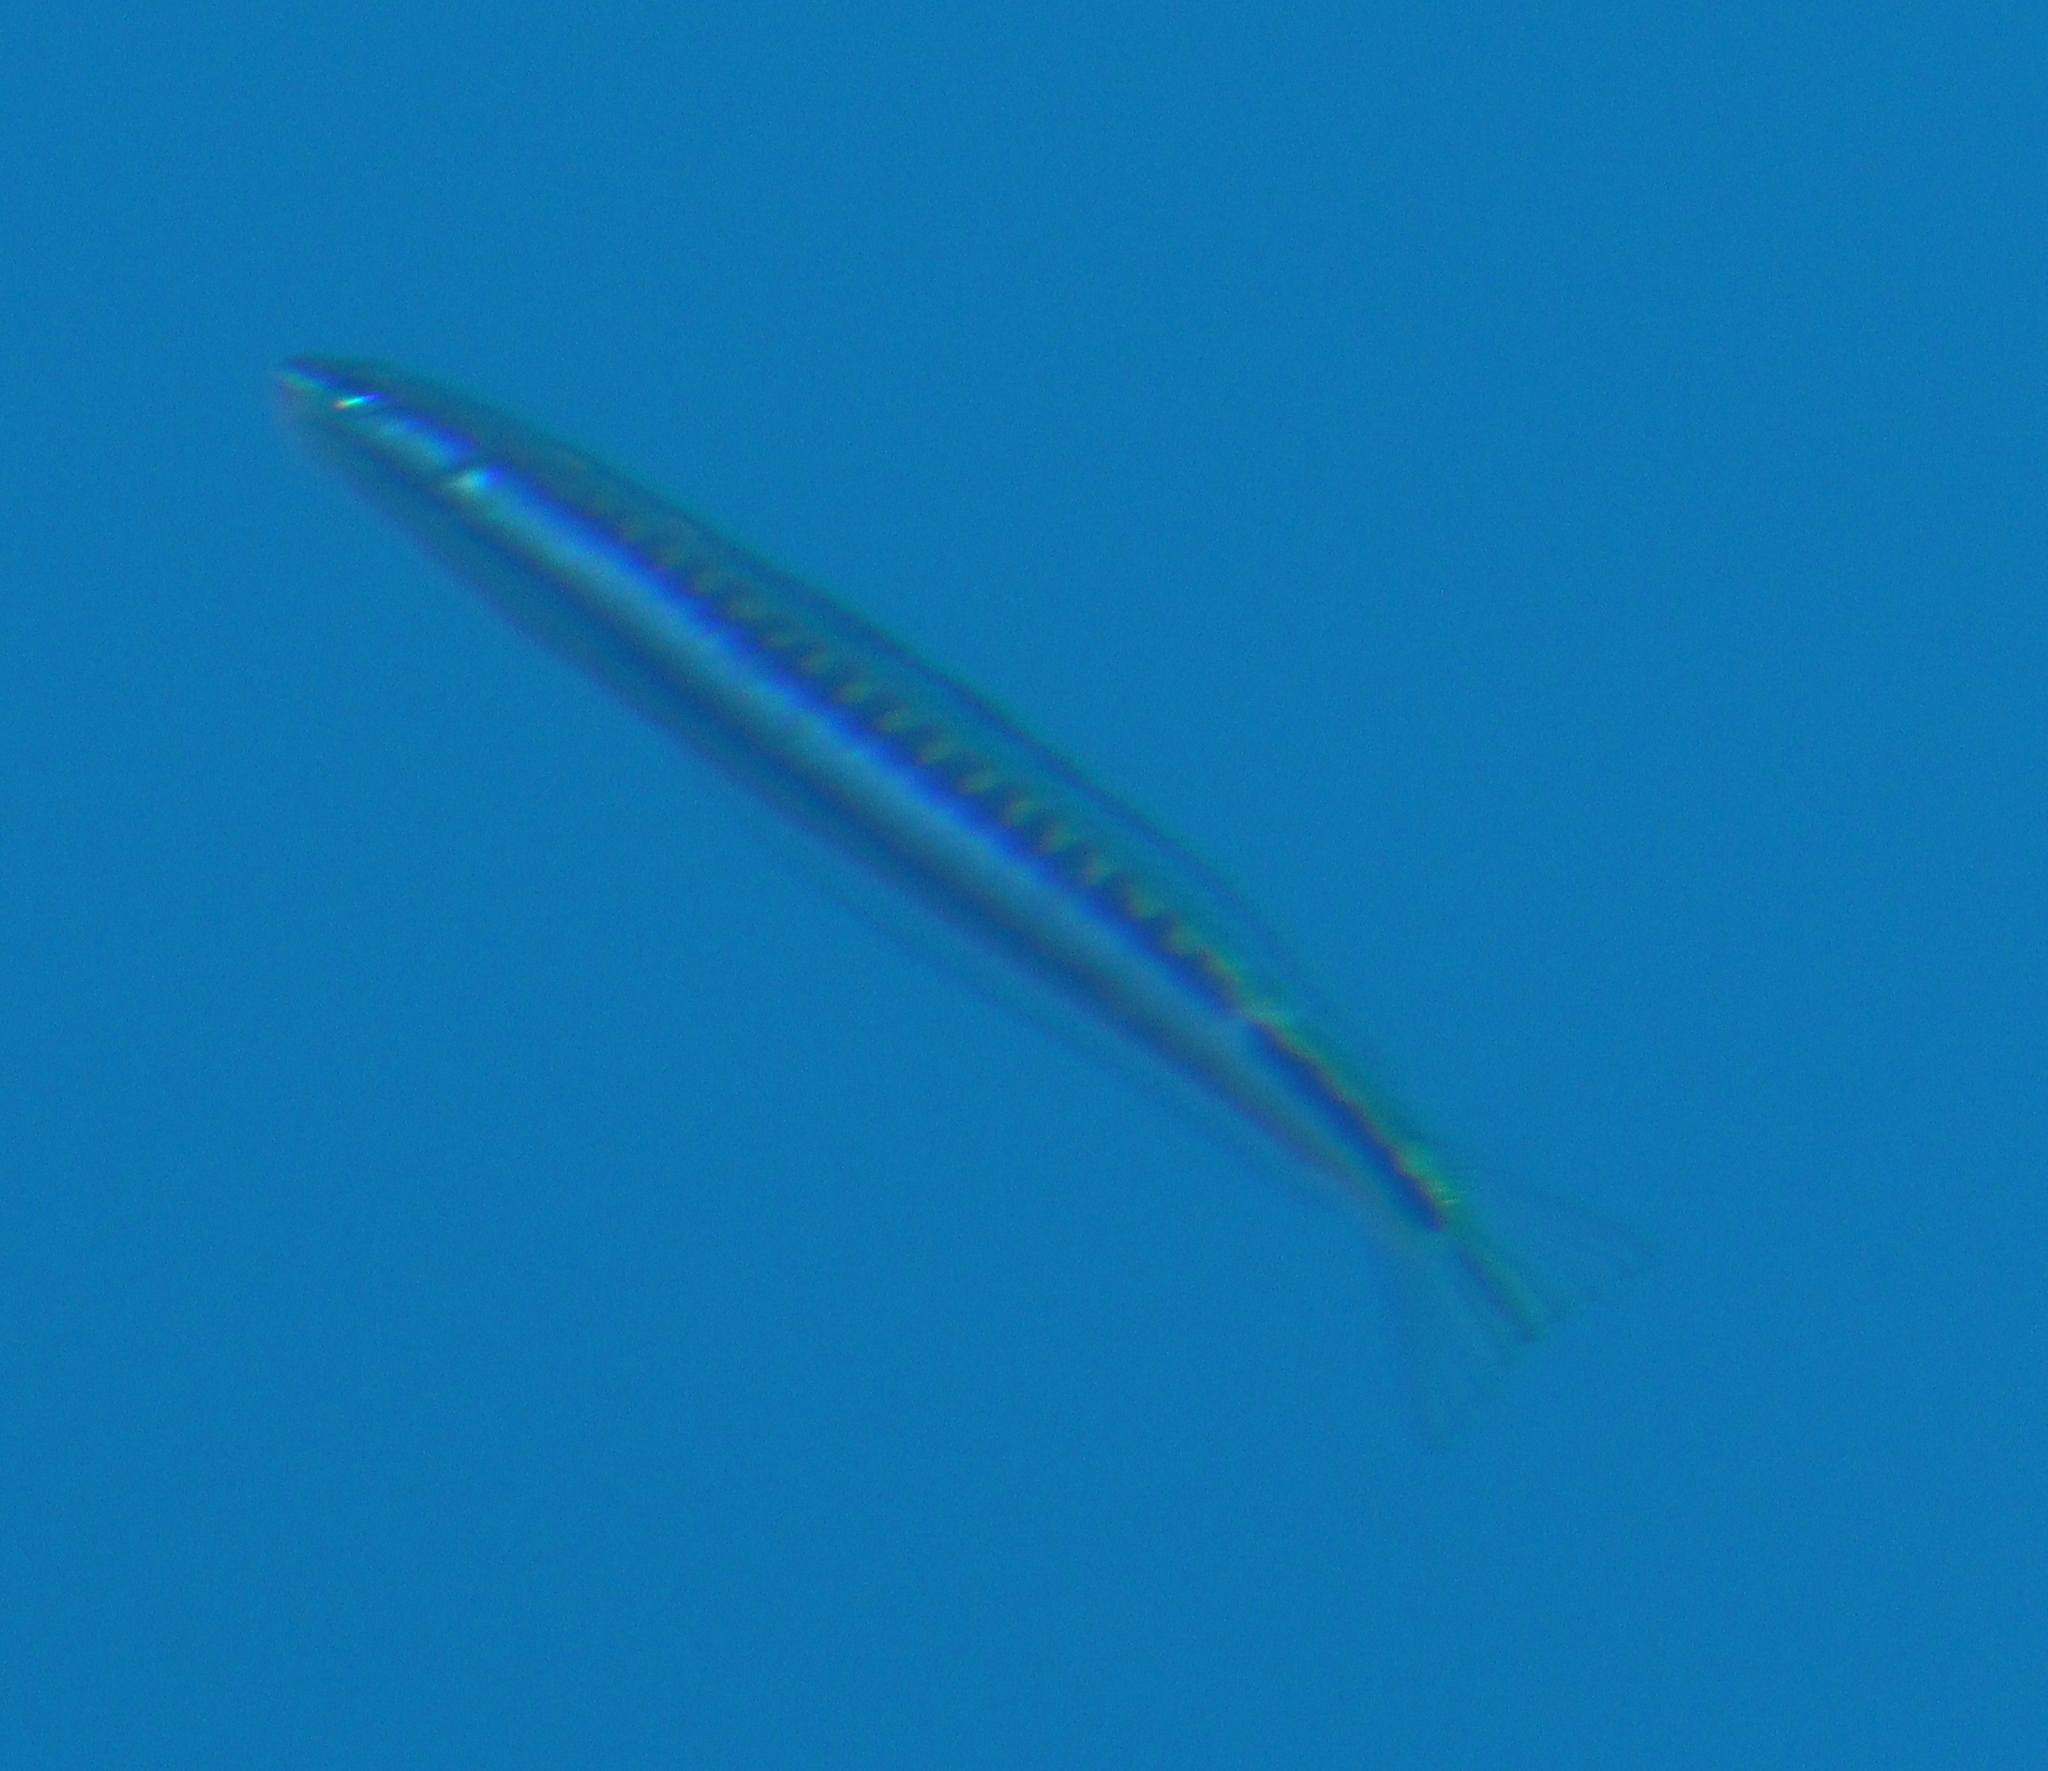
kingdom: Animalia
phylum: Chordata
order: Perciformes
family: Blenniidae
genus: Plagiotremus
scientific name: Plagiotremus tapeinosoma
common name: Hit and run blenny
